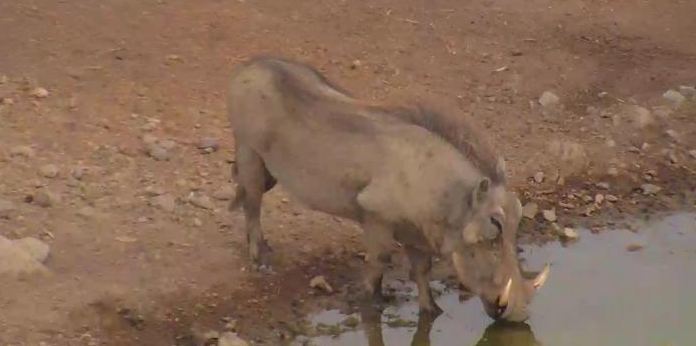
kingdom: Animalia
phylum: Chordata
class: Mammalia
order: Artiodactyla
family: Suidae
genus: Phacochoerus
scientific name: Phacochoerus africanus
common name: Common warthog
